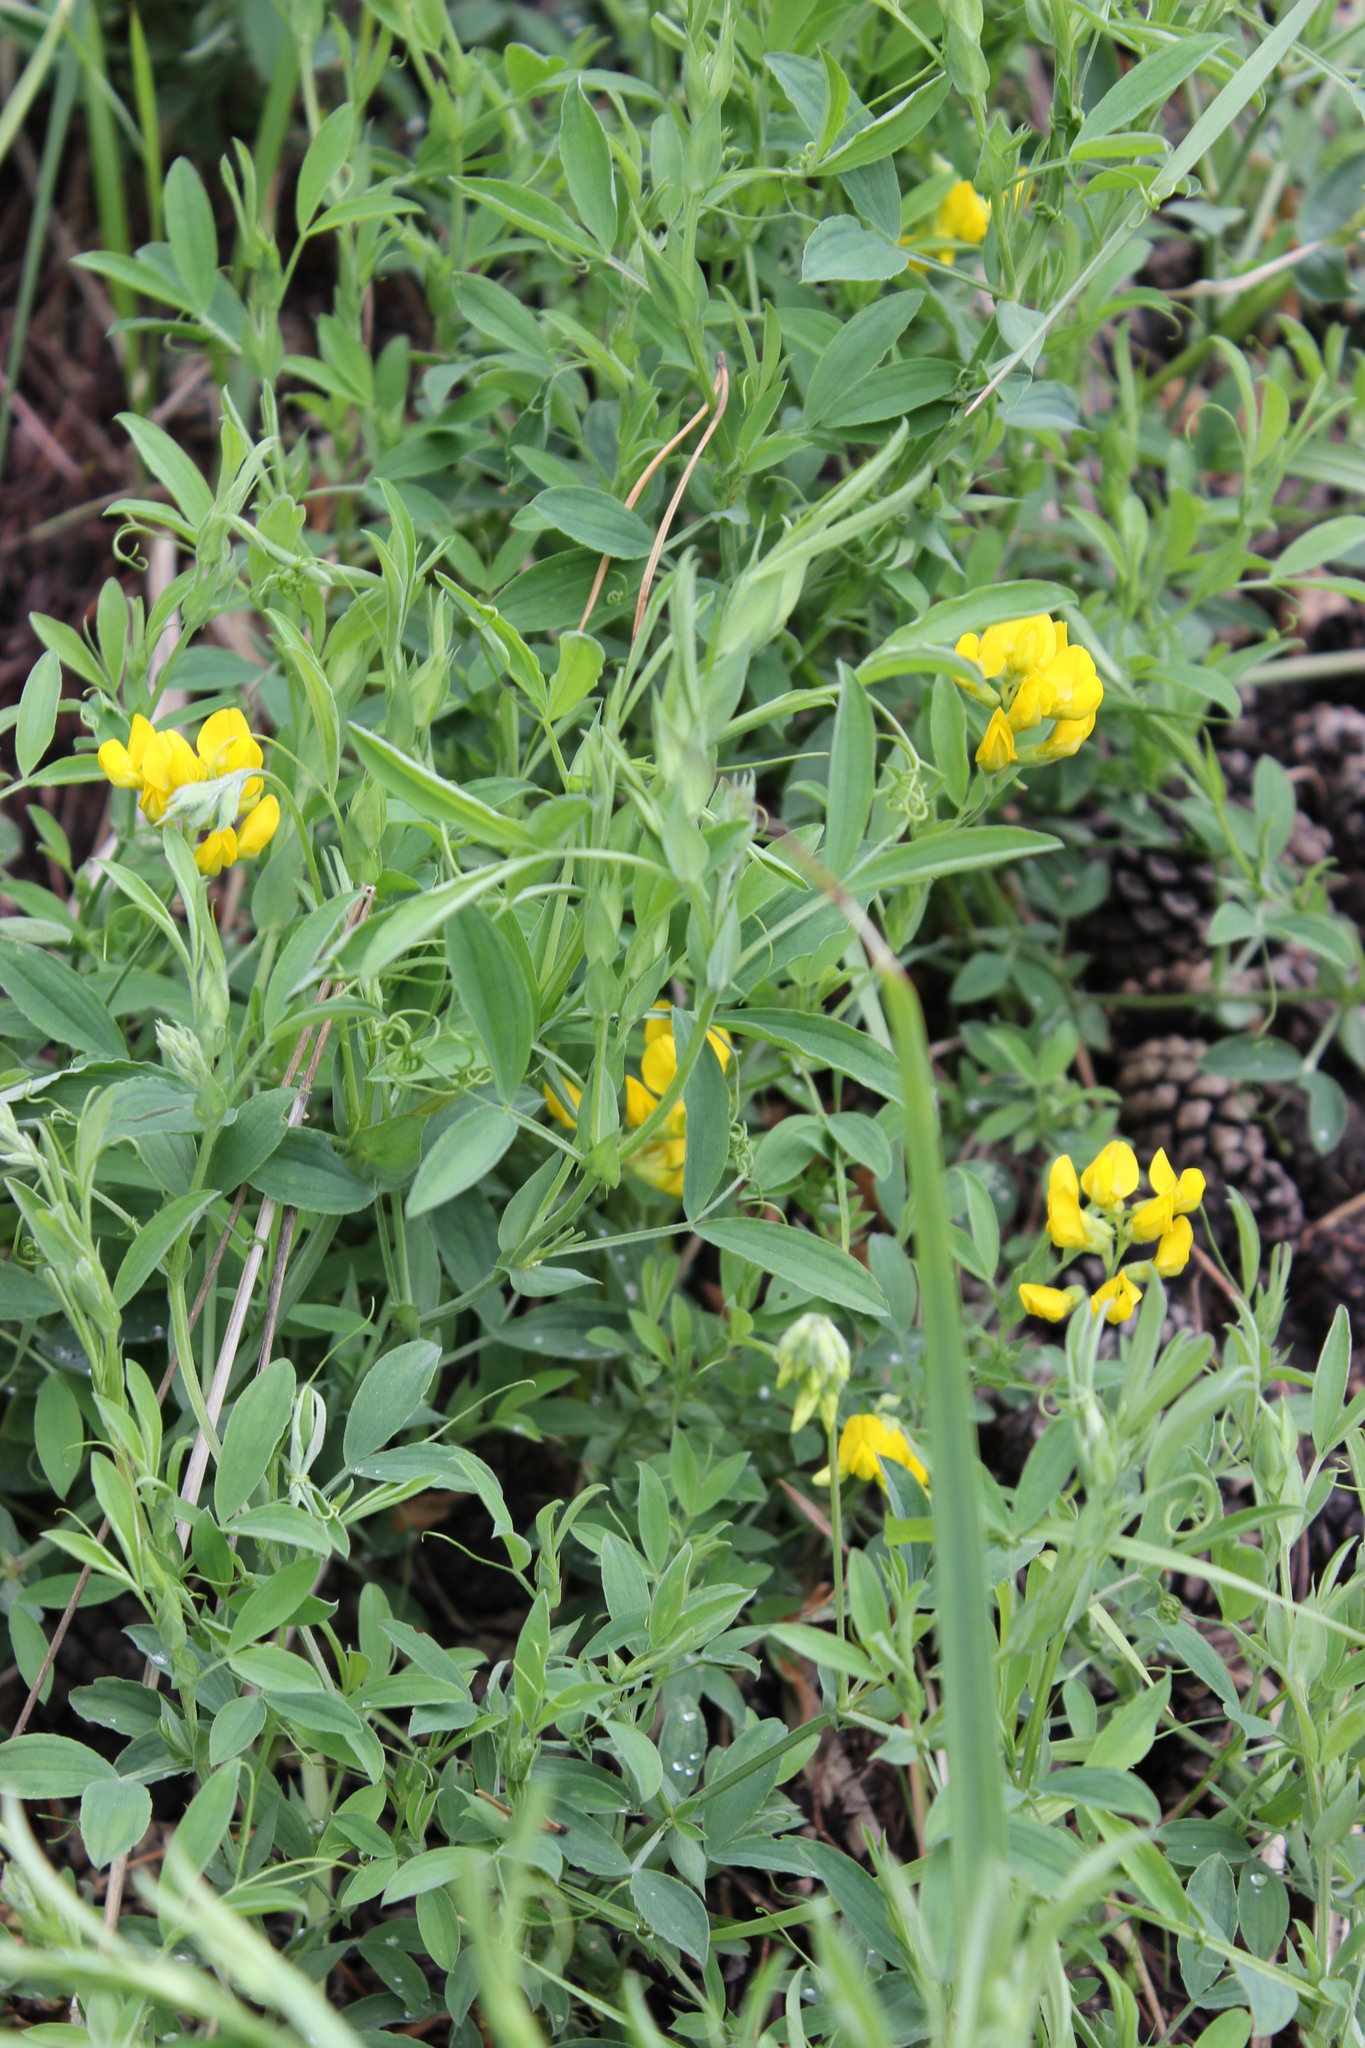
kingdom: Plantae
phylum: Tracheophyta
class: Magnoliopsida
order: Fabales
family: Fabaceae
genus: Lathyrus
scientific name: Lathyrus pratensis
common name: Meadow vetchling
